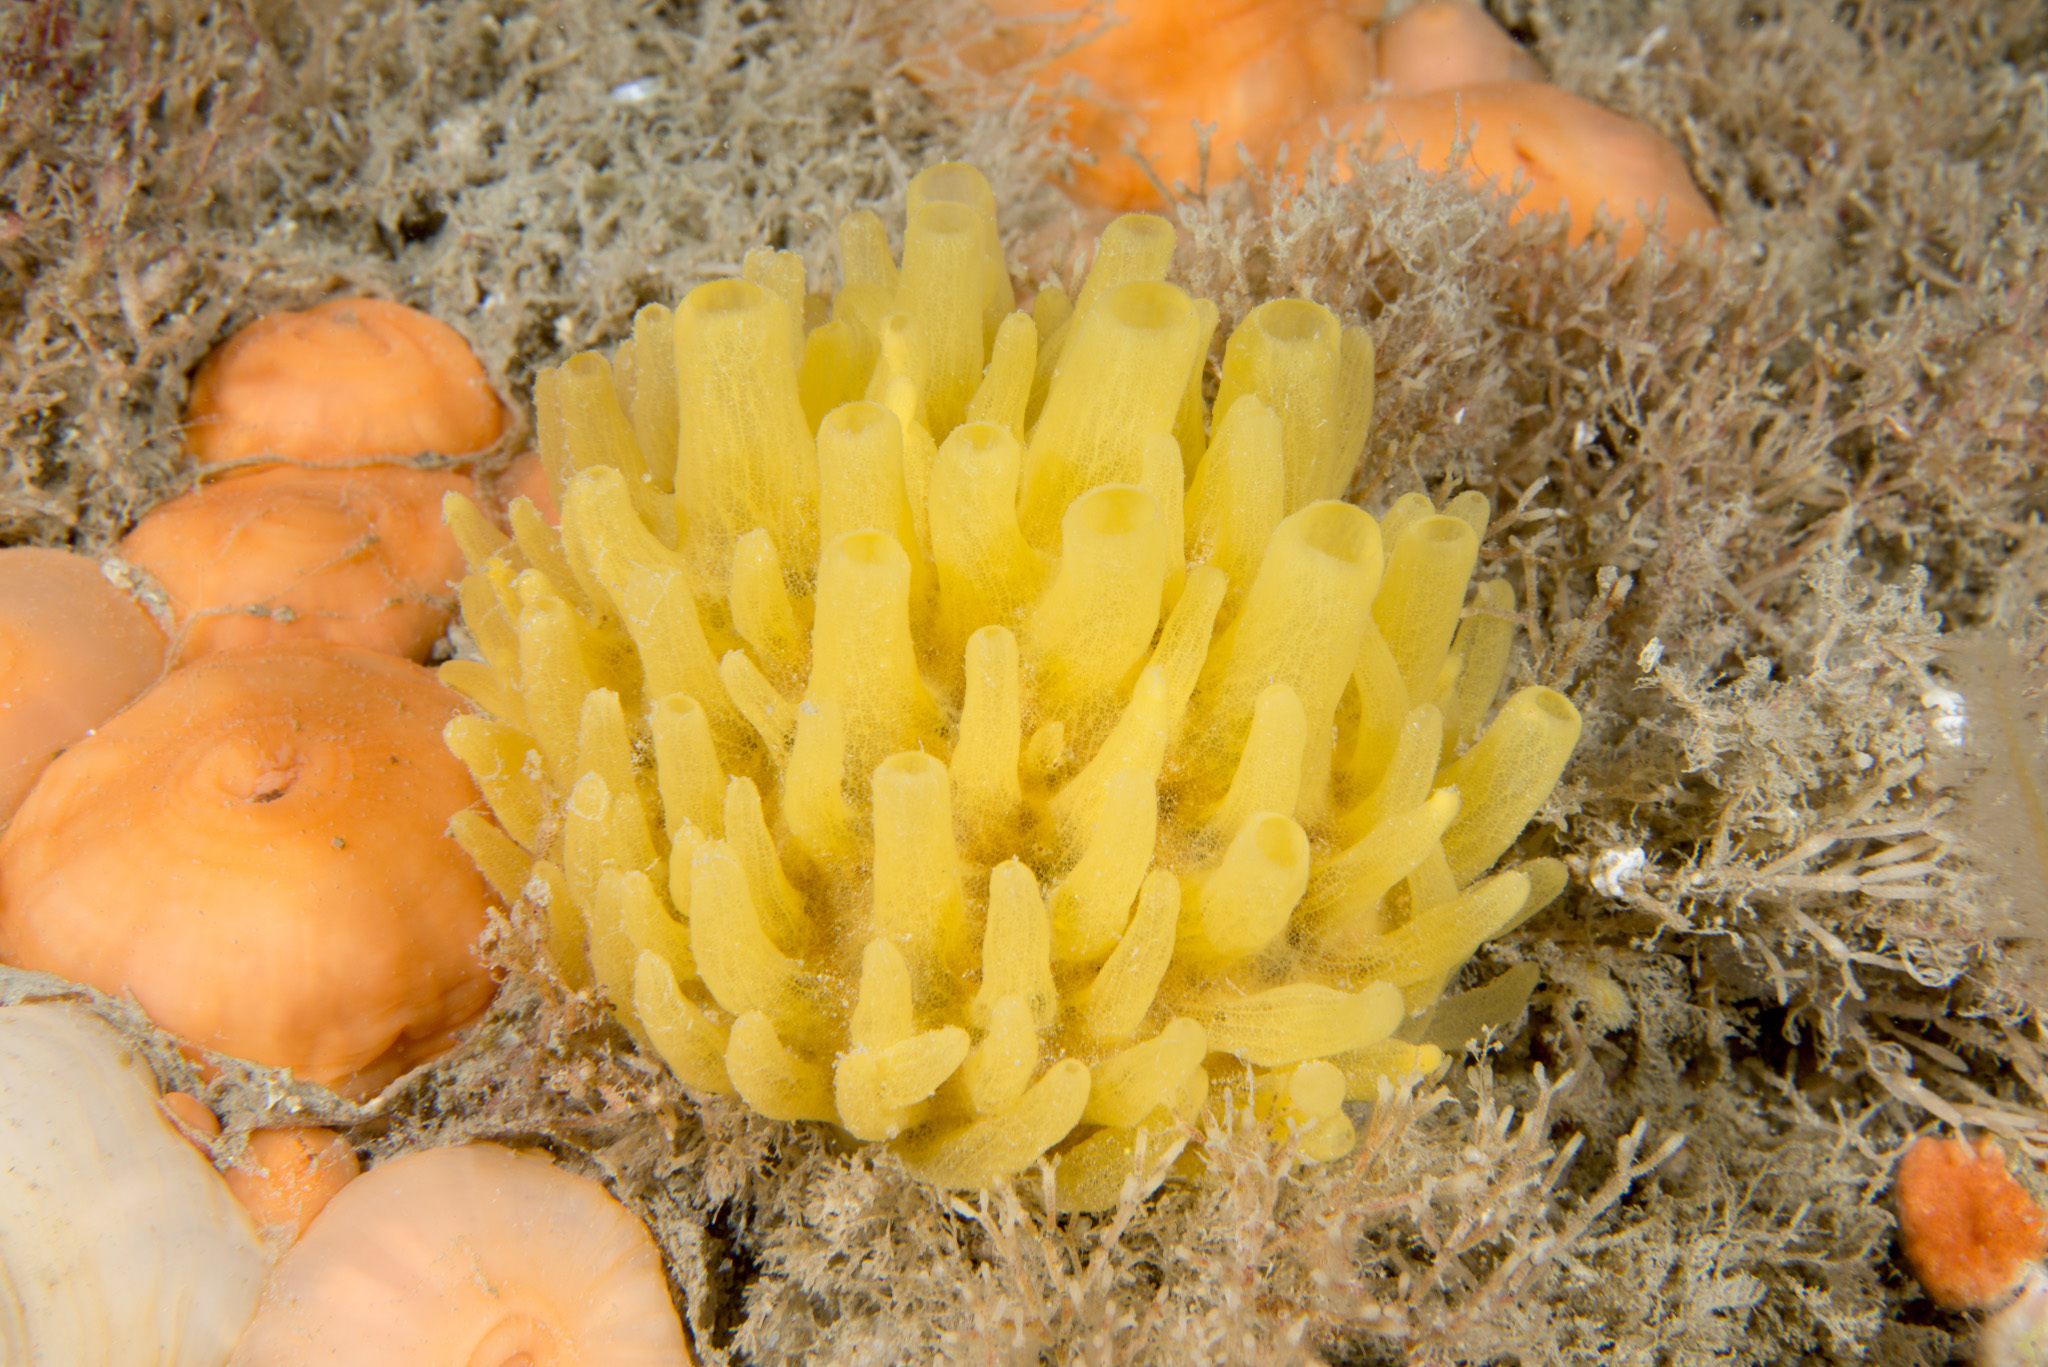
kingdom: Animalia
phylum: Porifera
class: Demospongiae
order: Polymastiida
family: Polymastiidae
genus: Polymastia
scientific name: Polymastia boletiformis
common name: Massive horny sponge
